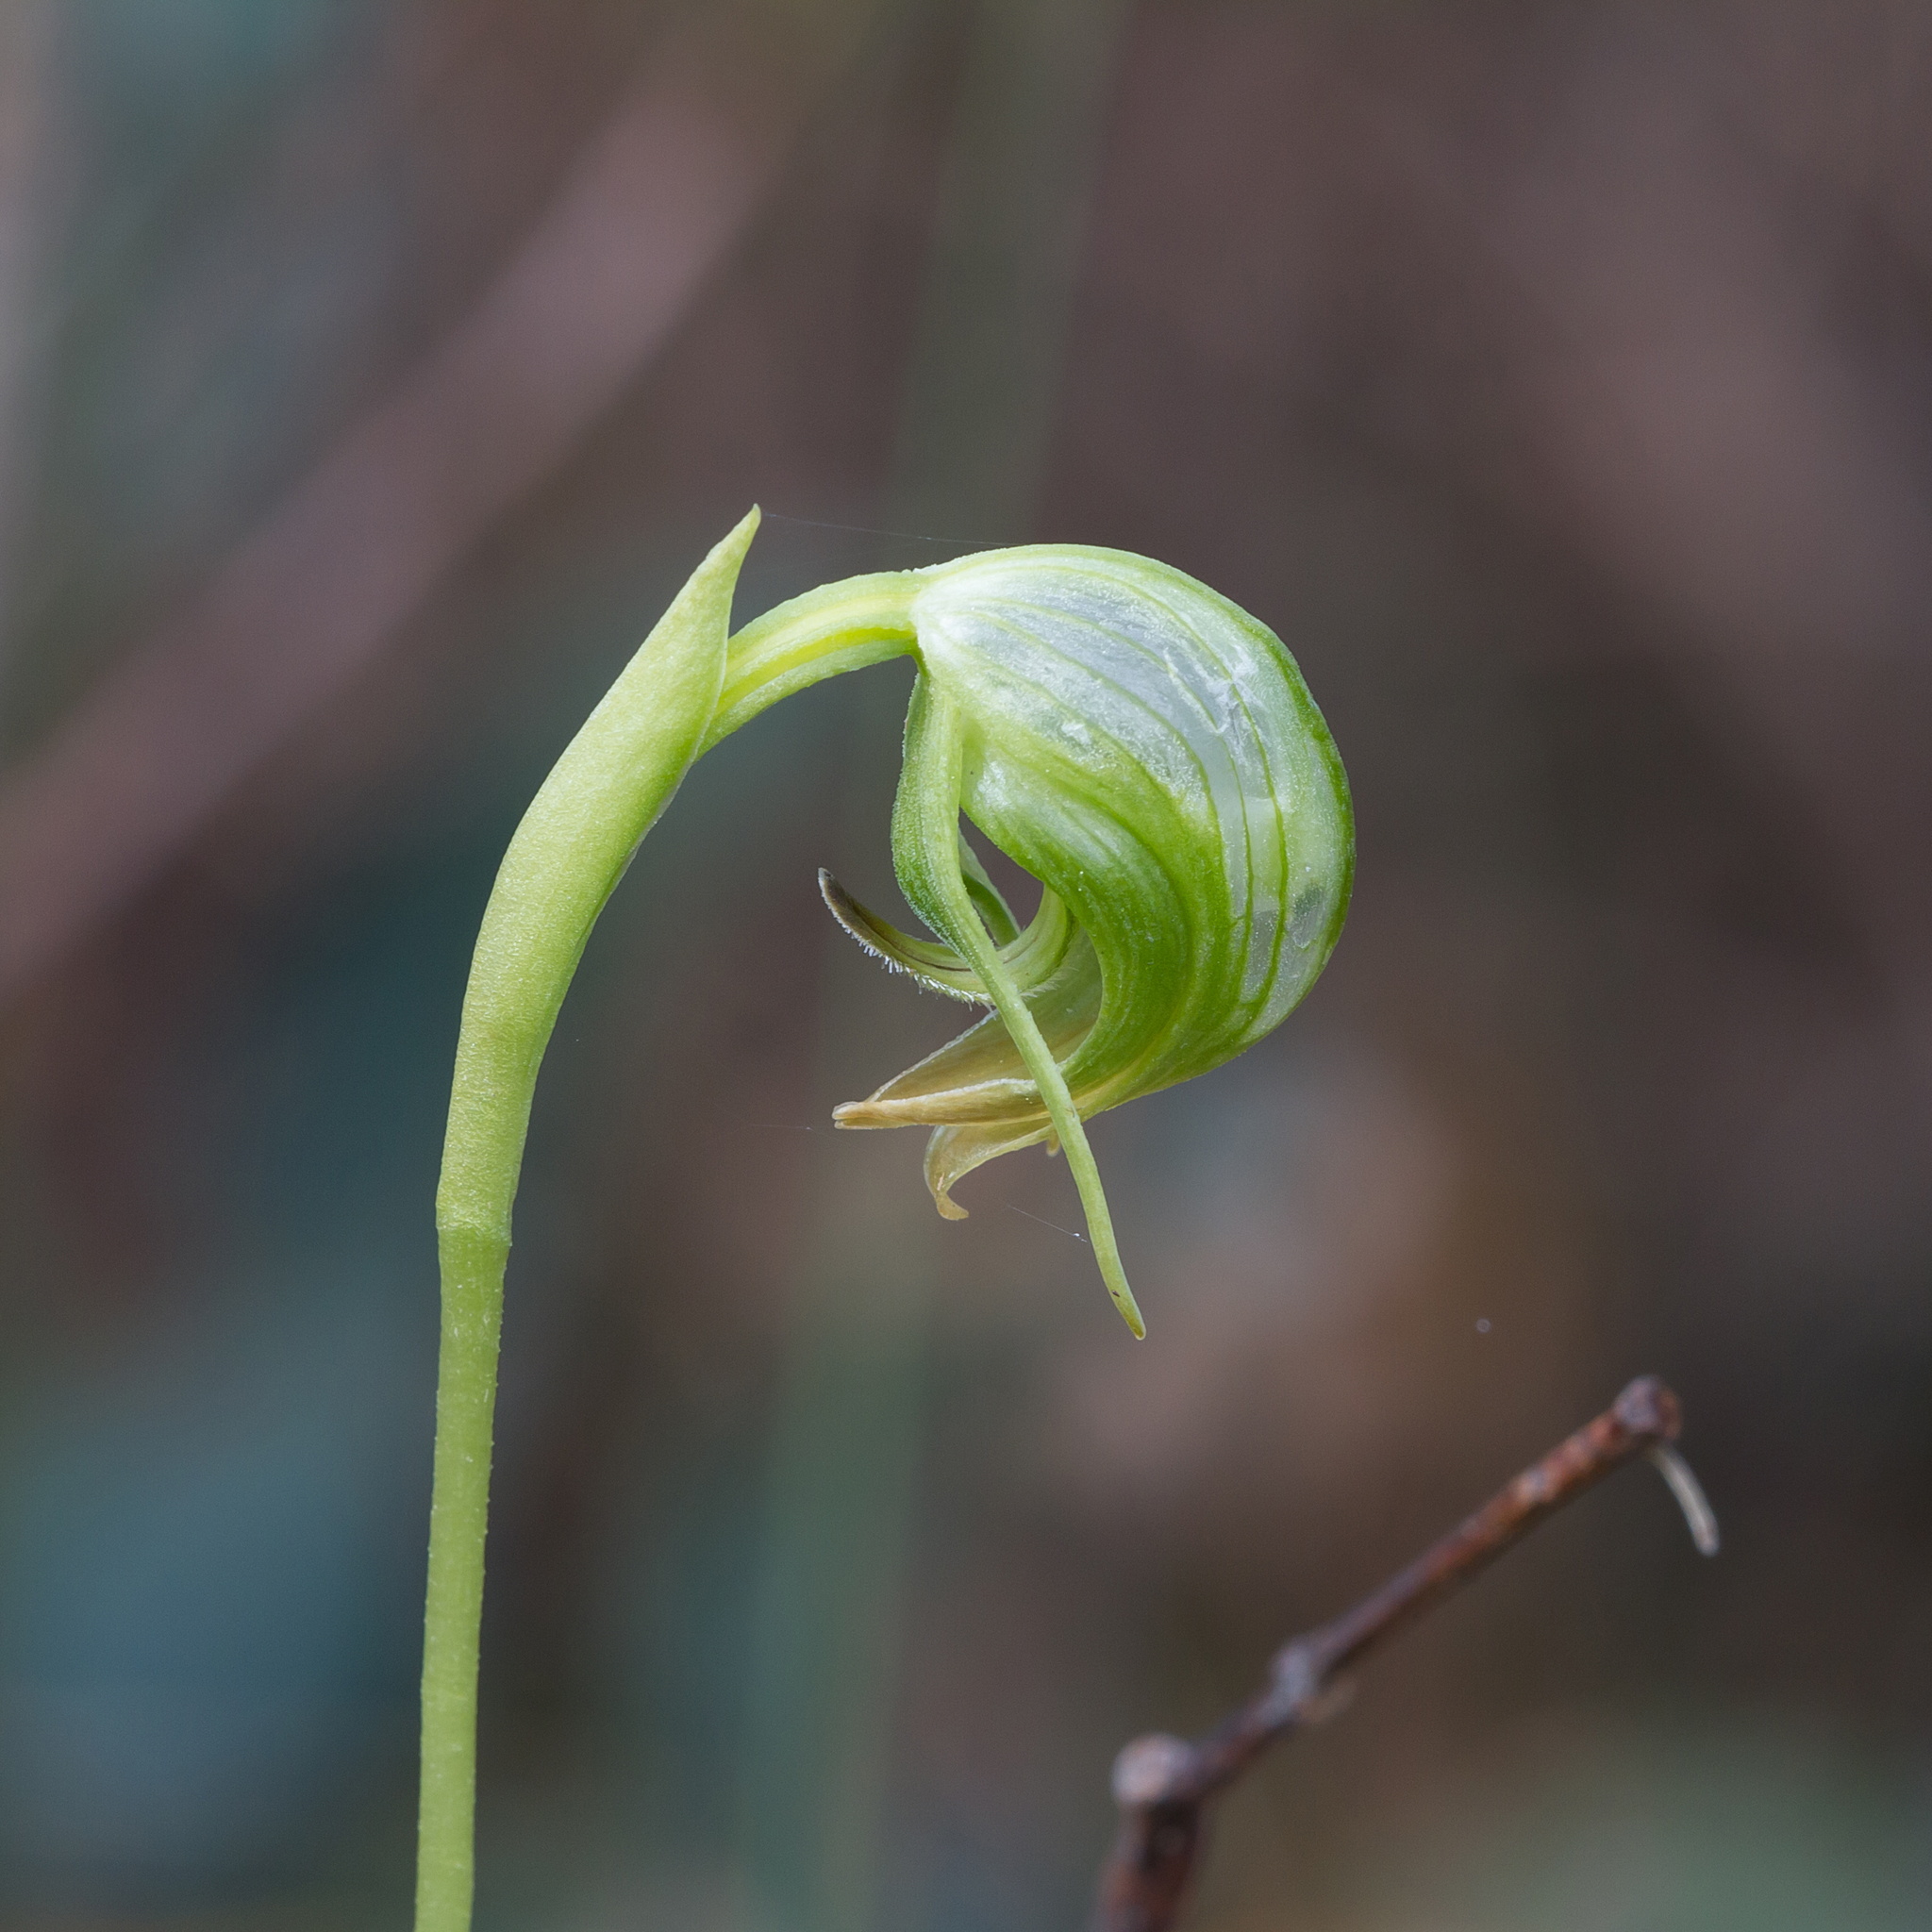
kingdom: Plantae
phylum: Tracheophyta
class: Liliopsida
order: Asparagales
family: Orchidaceae
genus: Pterostylis
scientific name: Pterostylis nutans
